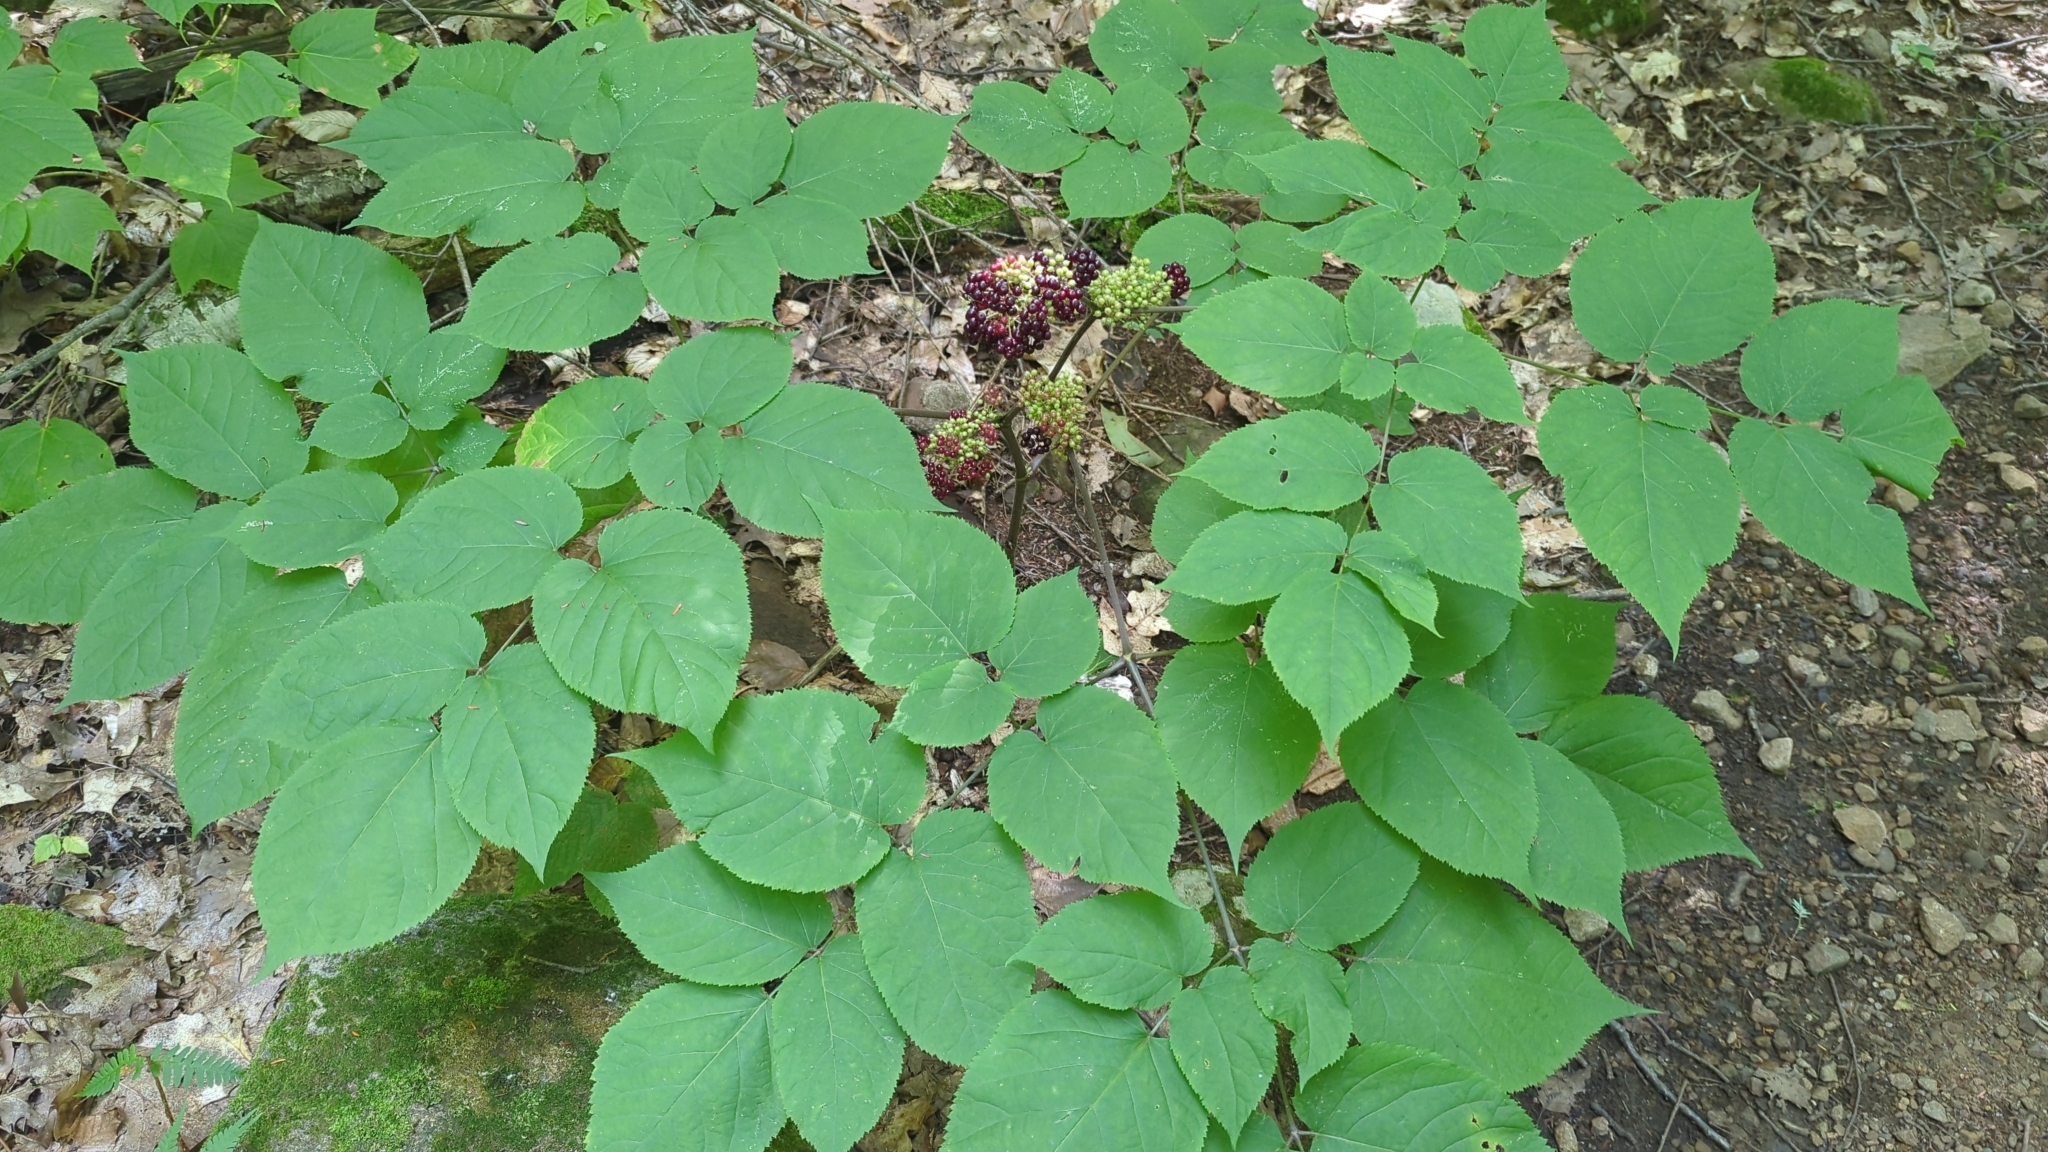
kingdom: Plantae
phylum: Tracheophyta
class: Magnoliopsida
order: Apiales
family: Araliaceae
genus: Aralia
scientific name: Aralia racemosa
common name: American-spikenard
